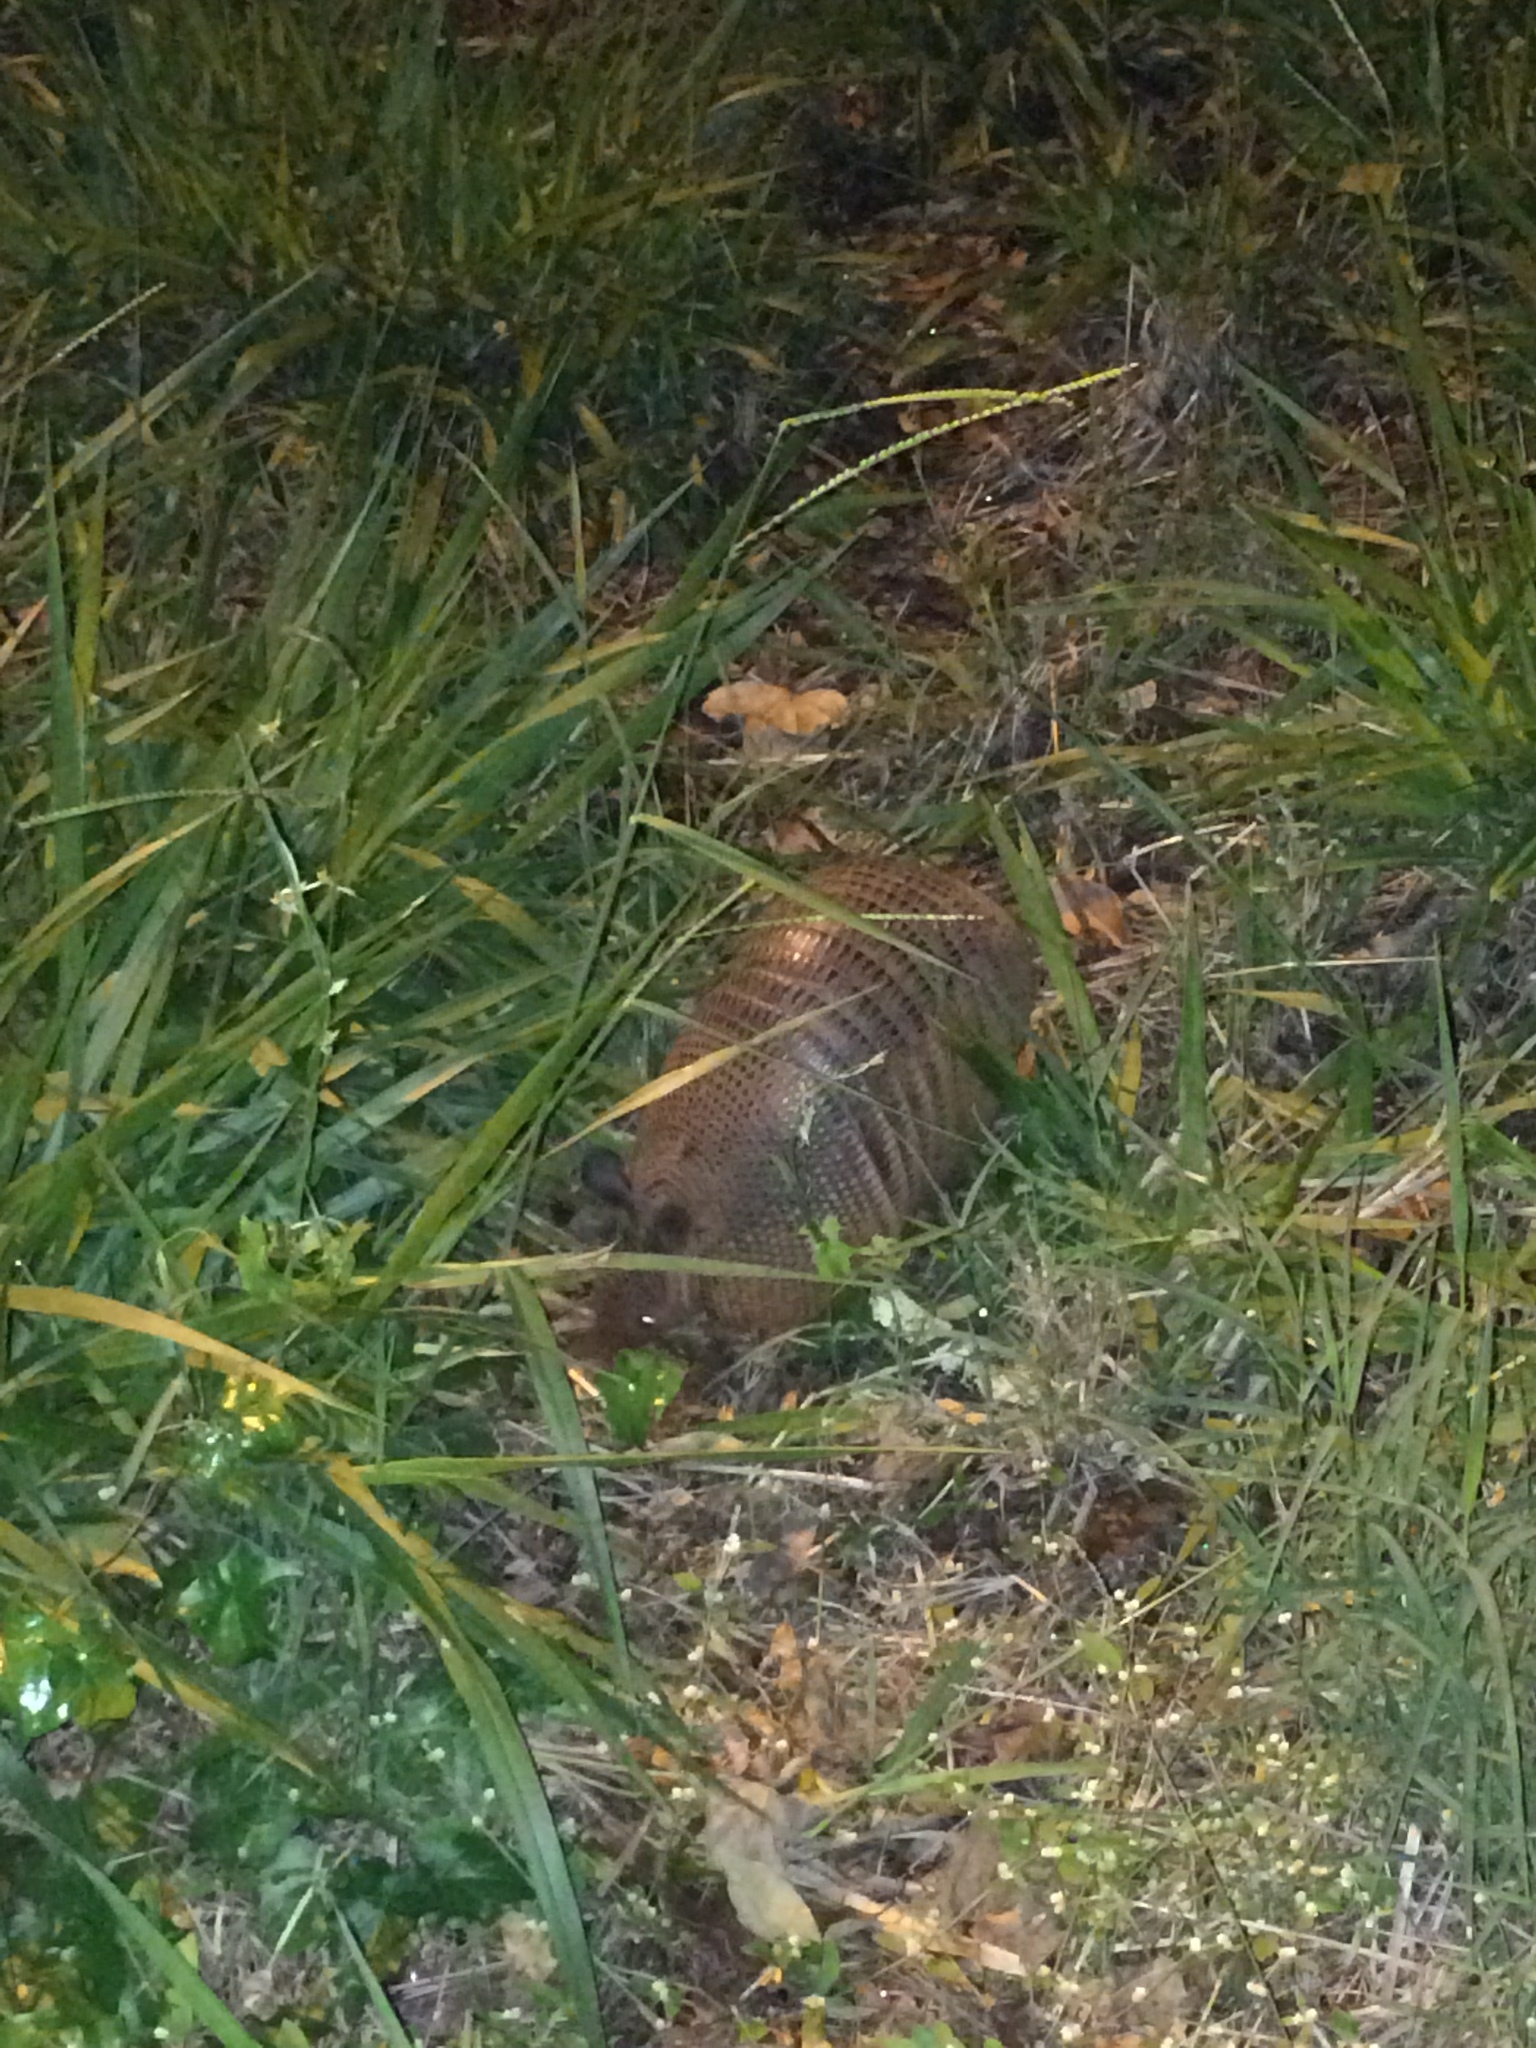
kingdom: Animalia
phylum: Chordata
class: Mammalia
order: Cingulata
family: Dasypodidae
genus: Dasypus
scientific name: Dasypus novemcinctus
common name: Nine-banded armadillo
